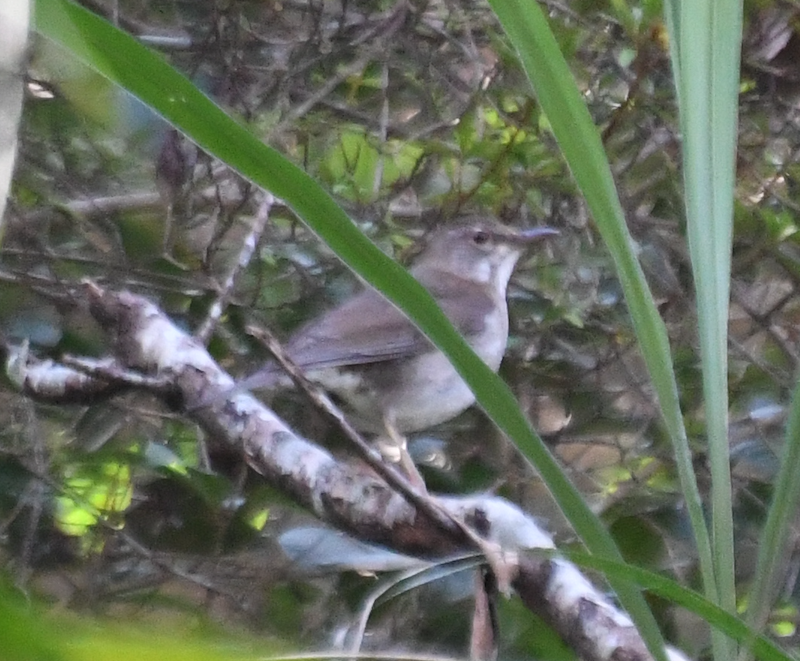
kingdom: Animalia
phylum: Chordata
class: Aves
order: Passeriformes
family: Turdidae
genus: Turdus
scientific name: Turdus pallidus
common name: Pale thrush
